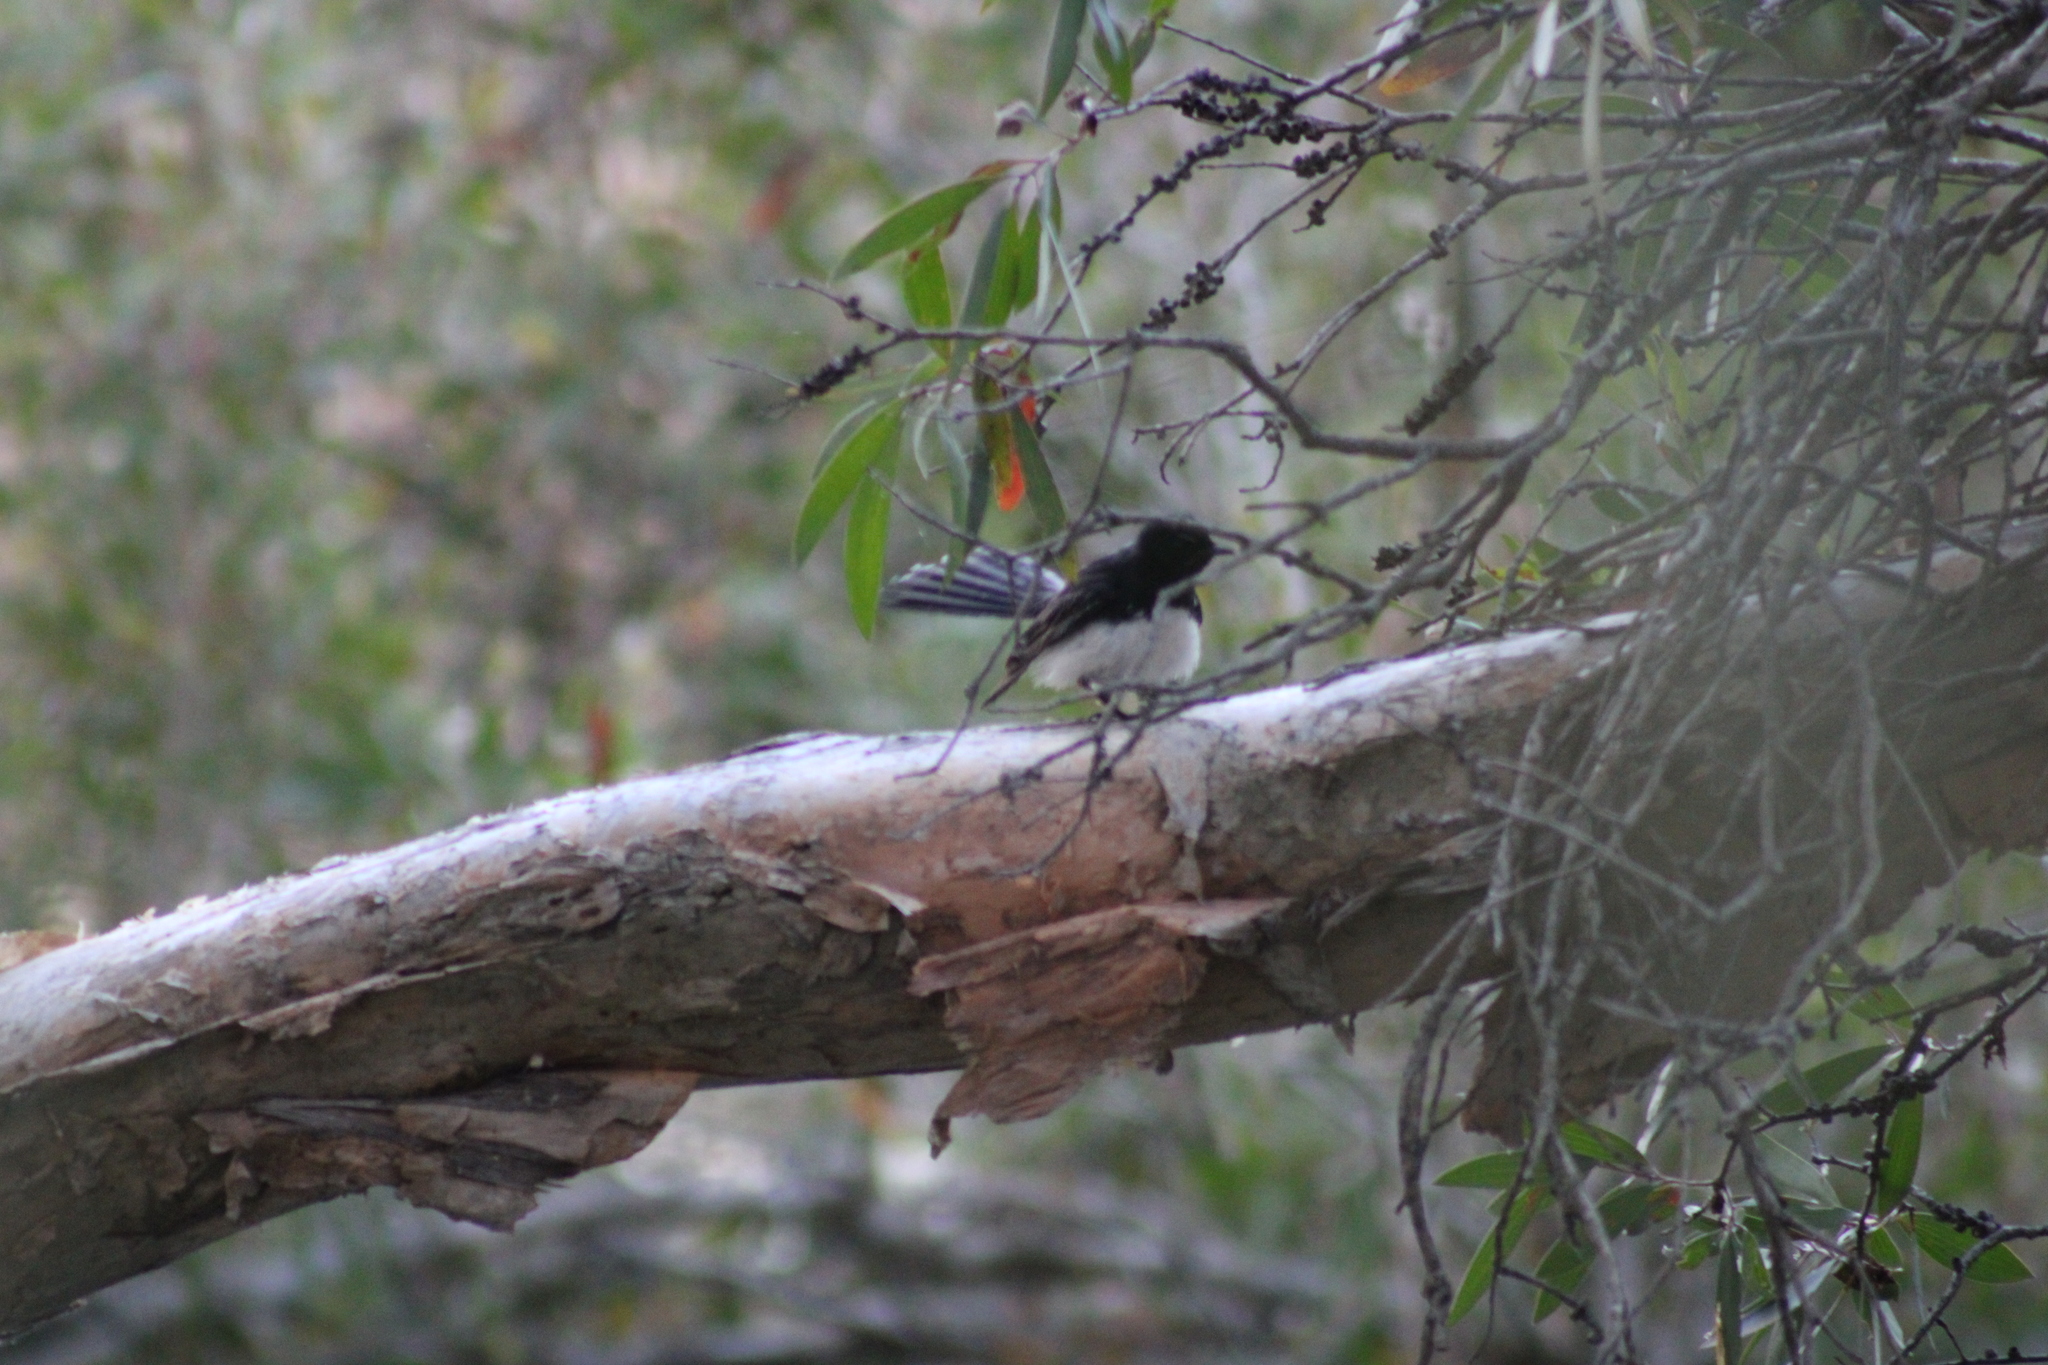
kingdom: Animalia
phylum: Chordata
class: Aves
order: Passeriformes
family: Rhipiduridae
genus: Rhipidura
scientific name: Rhipidura leucophrys
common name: Willie wagtail
